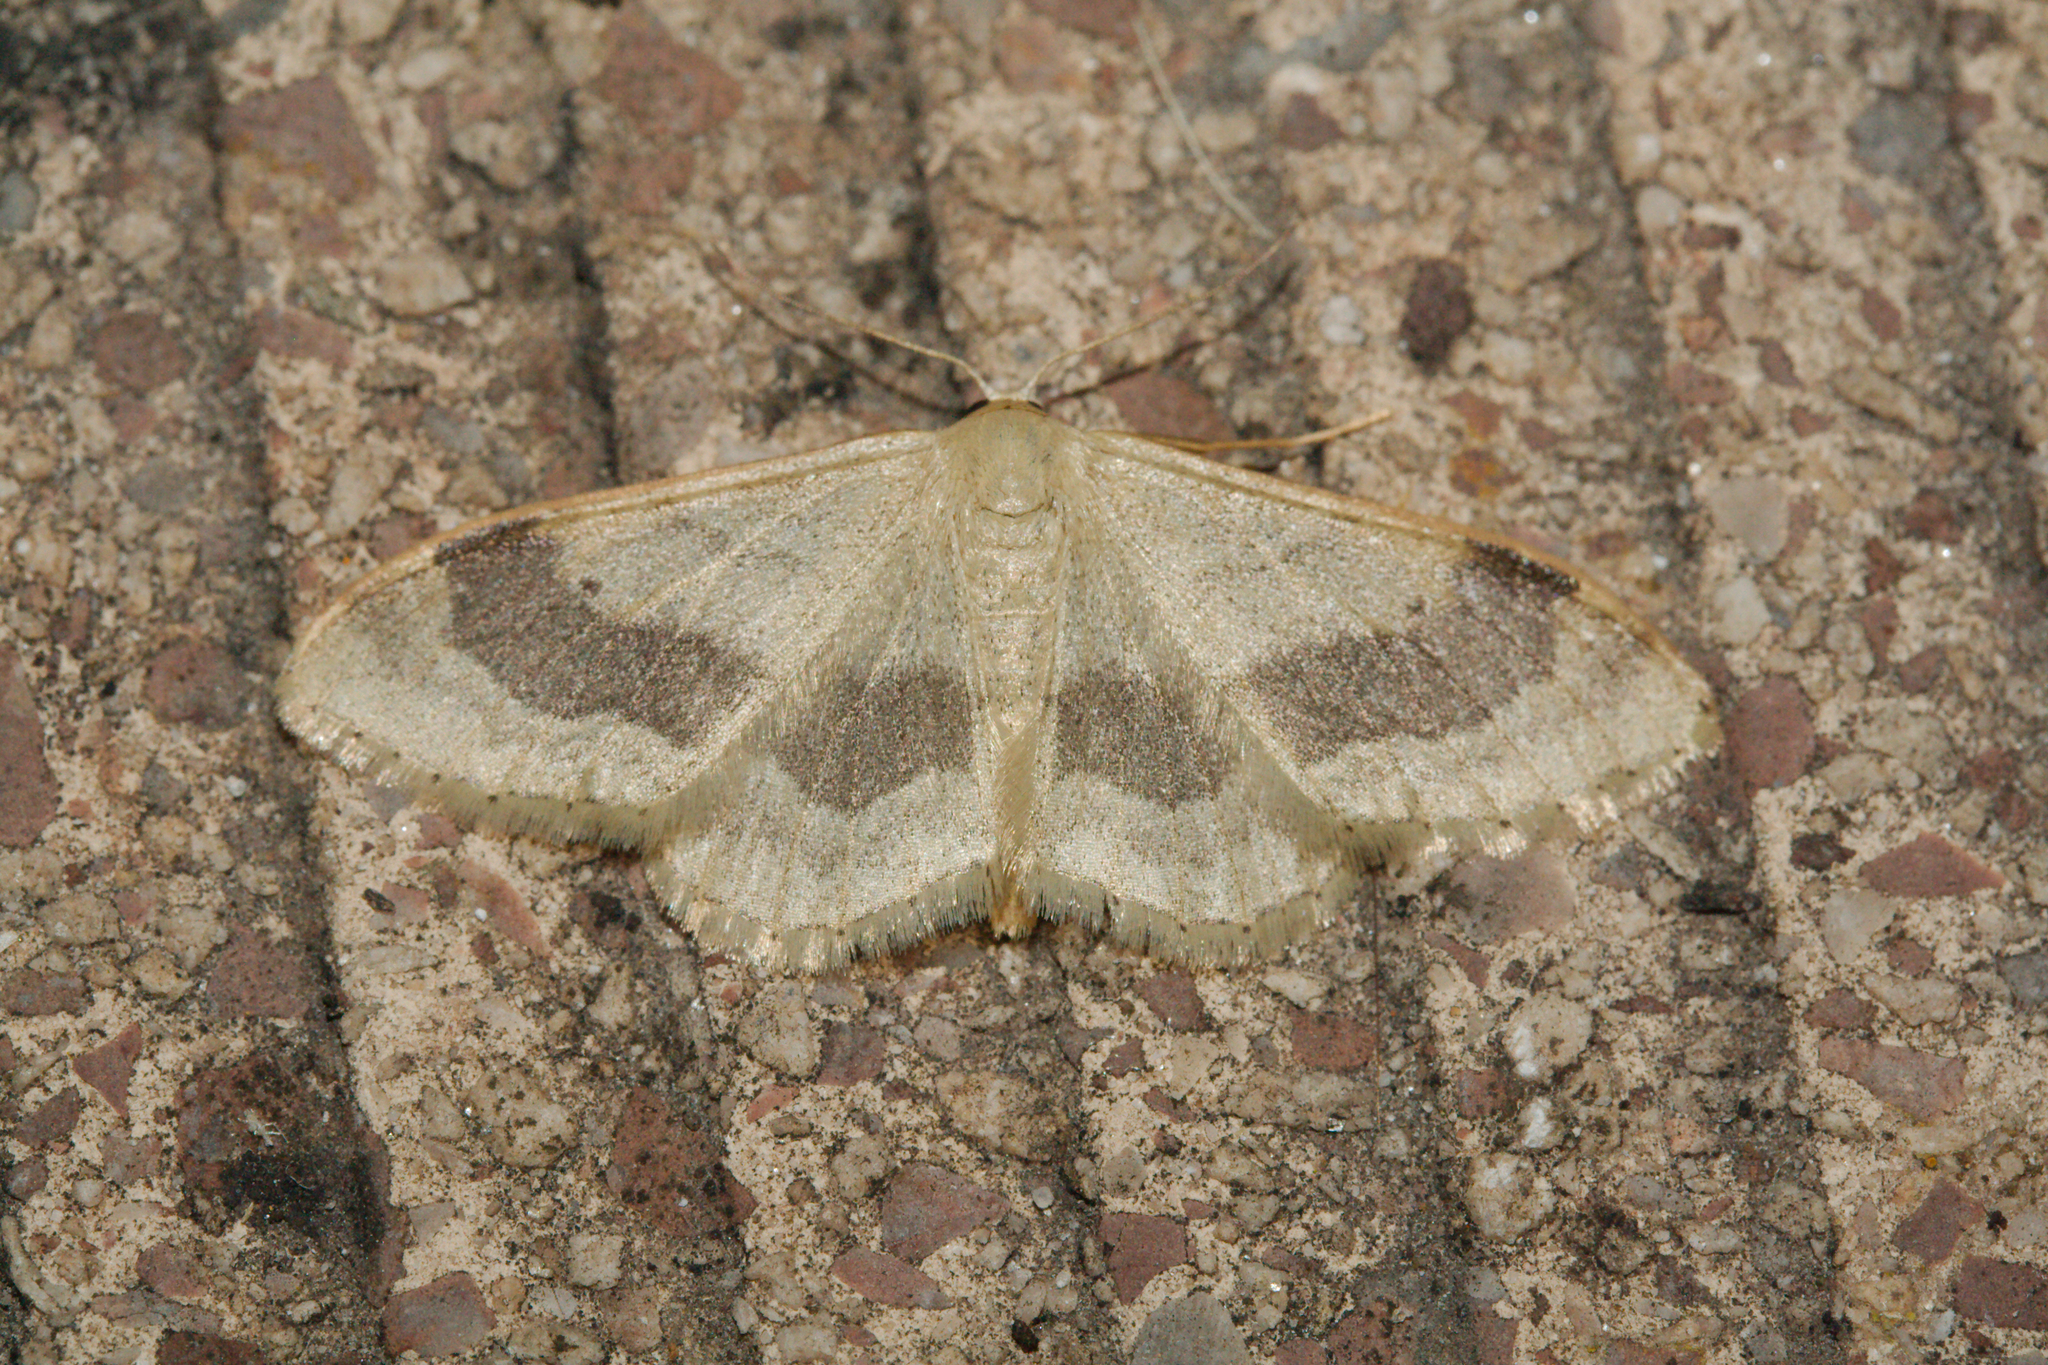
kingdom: Animalia
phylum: Arthropoda
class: Insecta
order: Lepidoptera
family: Geometridae
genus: Idaea
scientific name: Idaea aversata
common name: Riband wave
